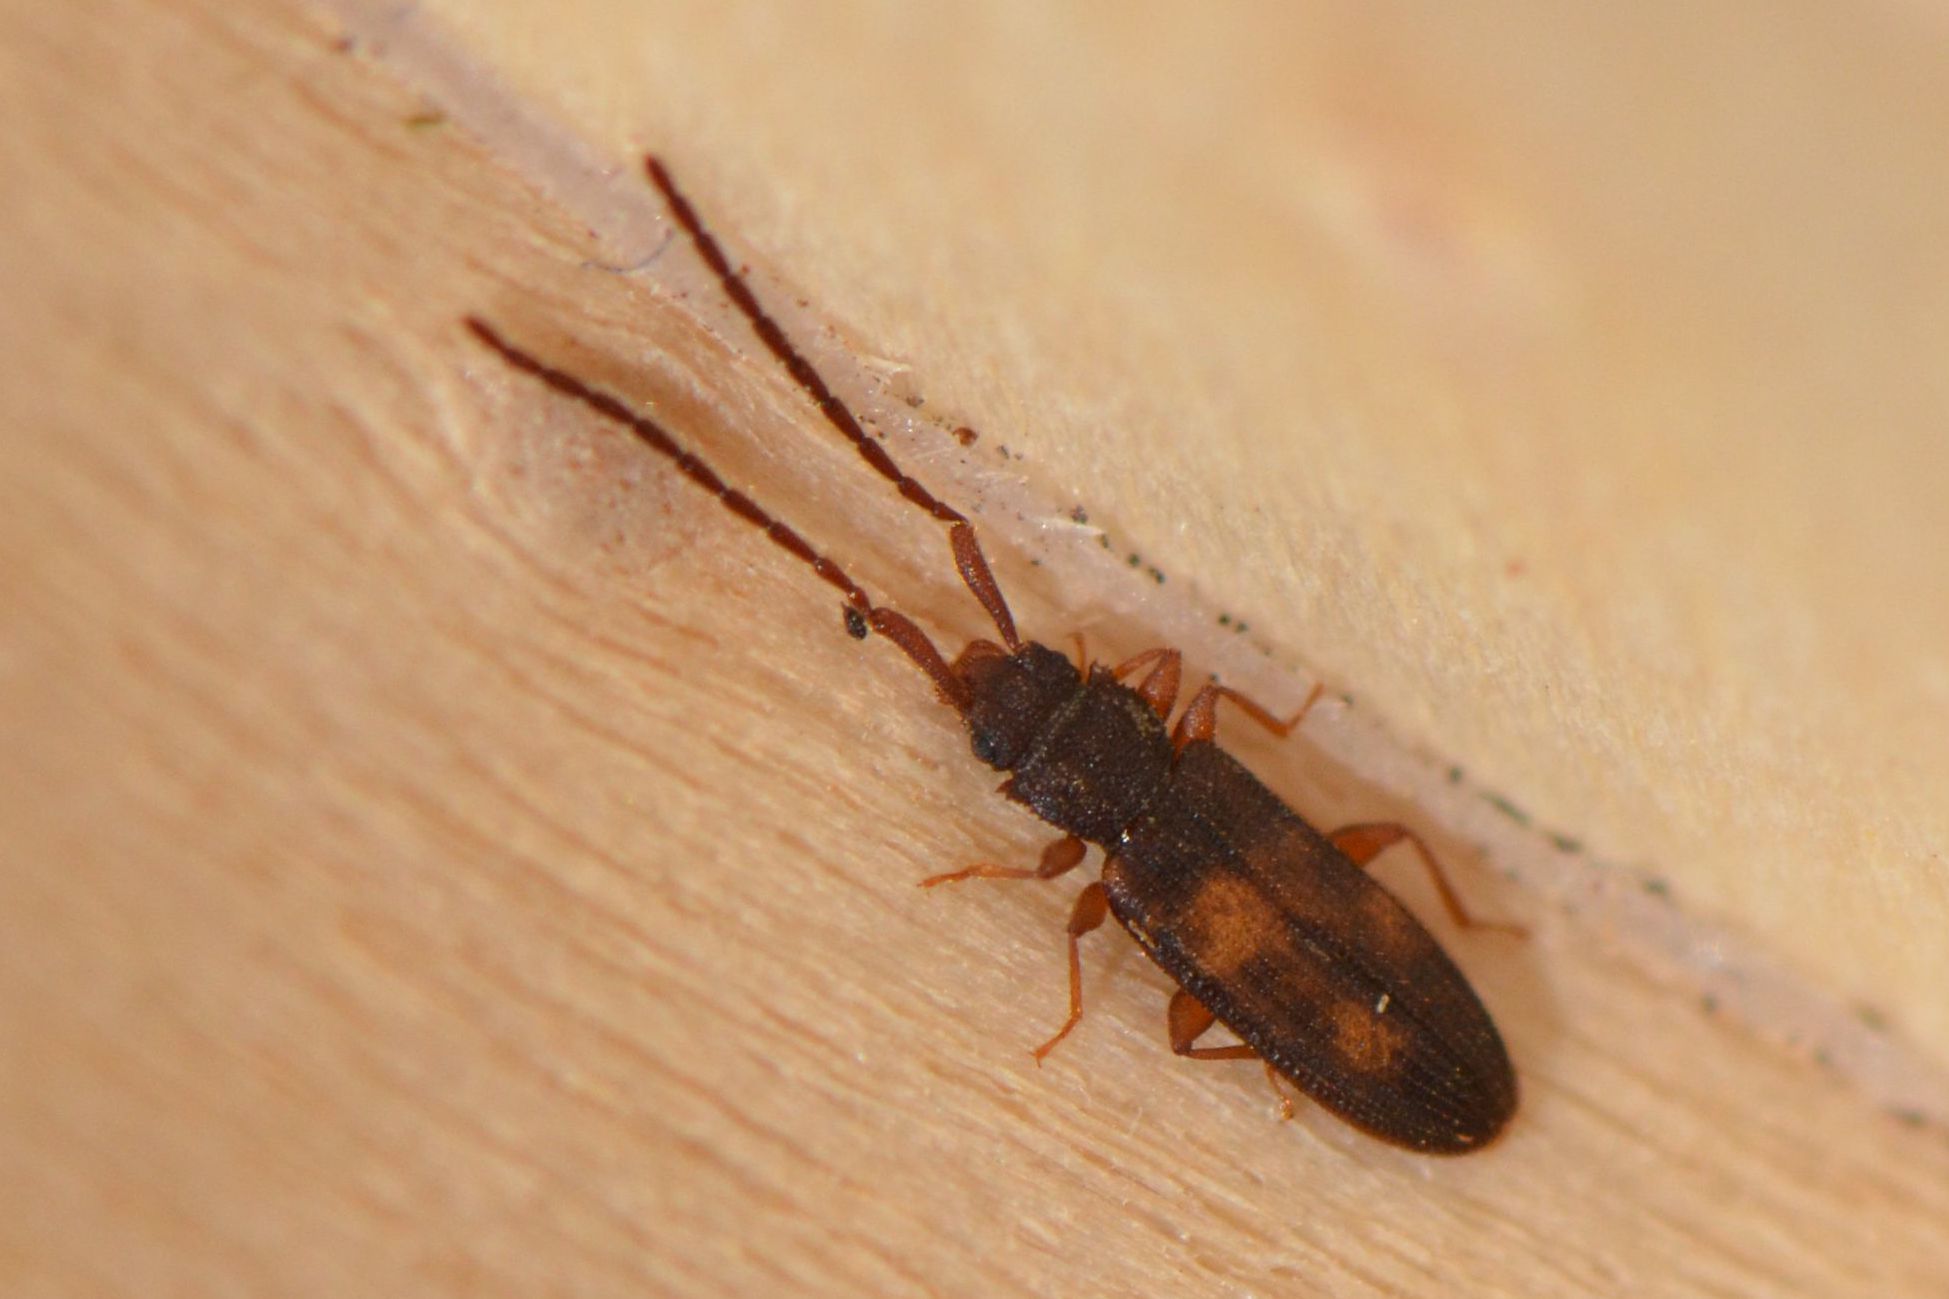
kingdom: Animalia
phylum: Arthropoda
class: Insecta
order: Coleoptera
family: Silvanidae
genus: Uleiota
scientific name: Uleiota planatus
